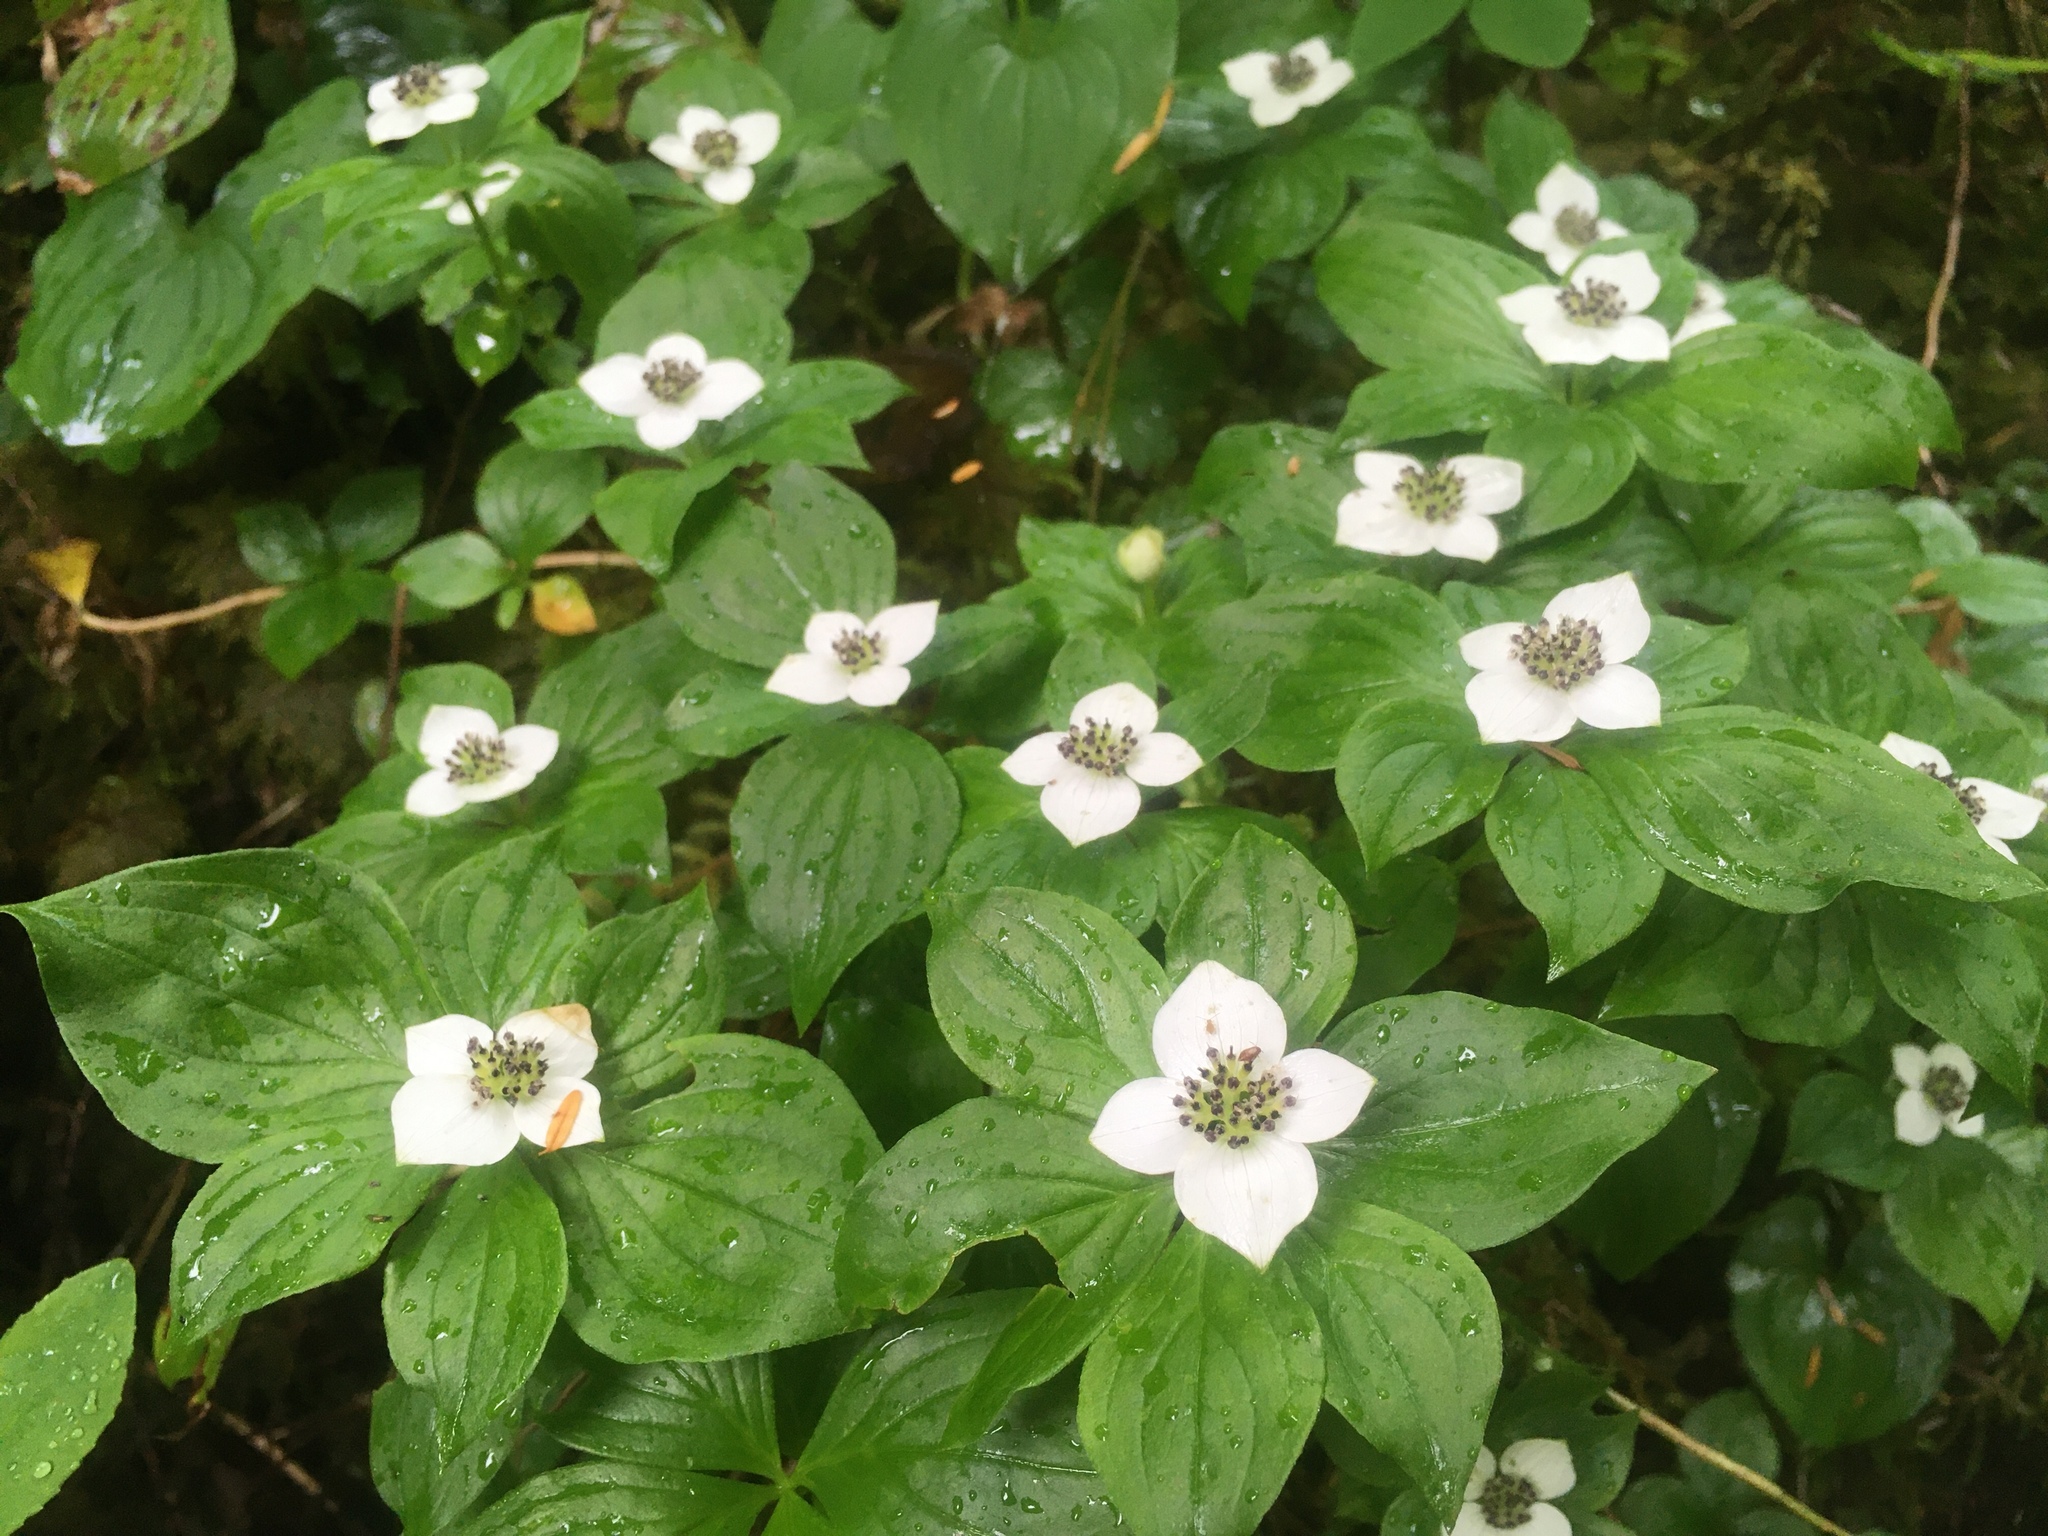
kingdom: Plantae
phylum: Tracheophyta
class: Magnoliopsida
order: Cornales
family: Cornaceae
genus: Cornus
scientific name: Cornus unalaschkensis
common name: Alaska bunchberry
